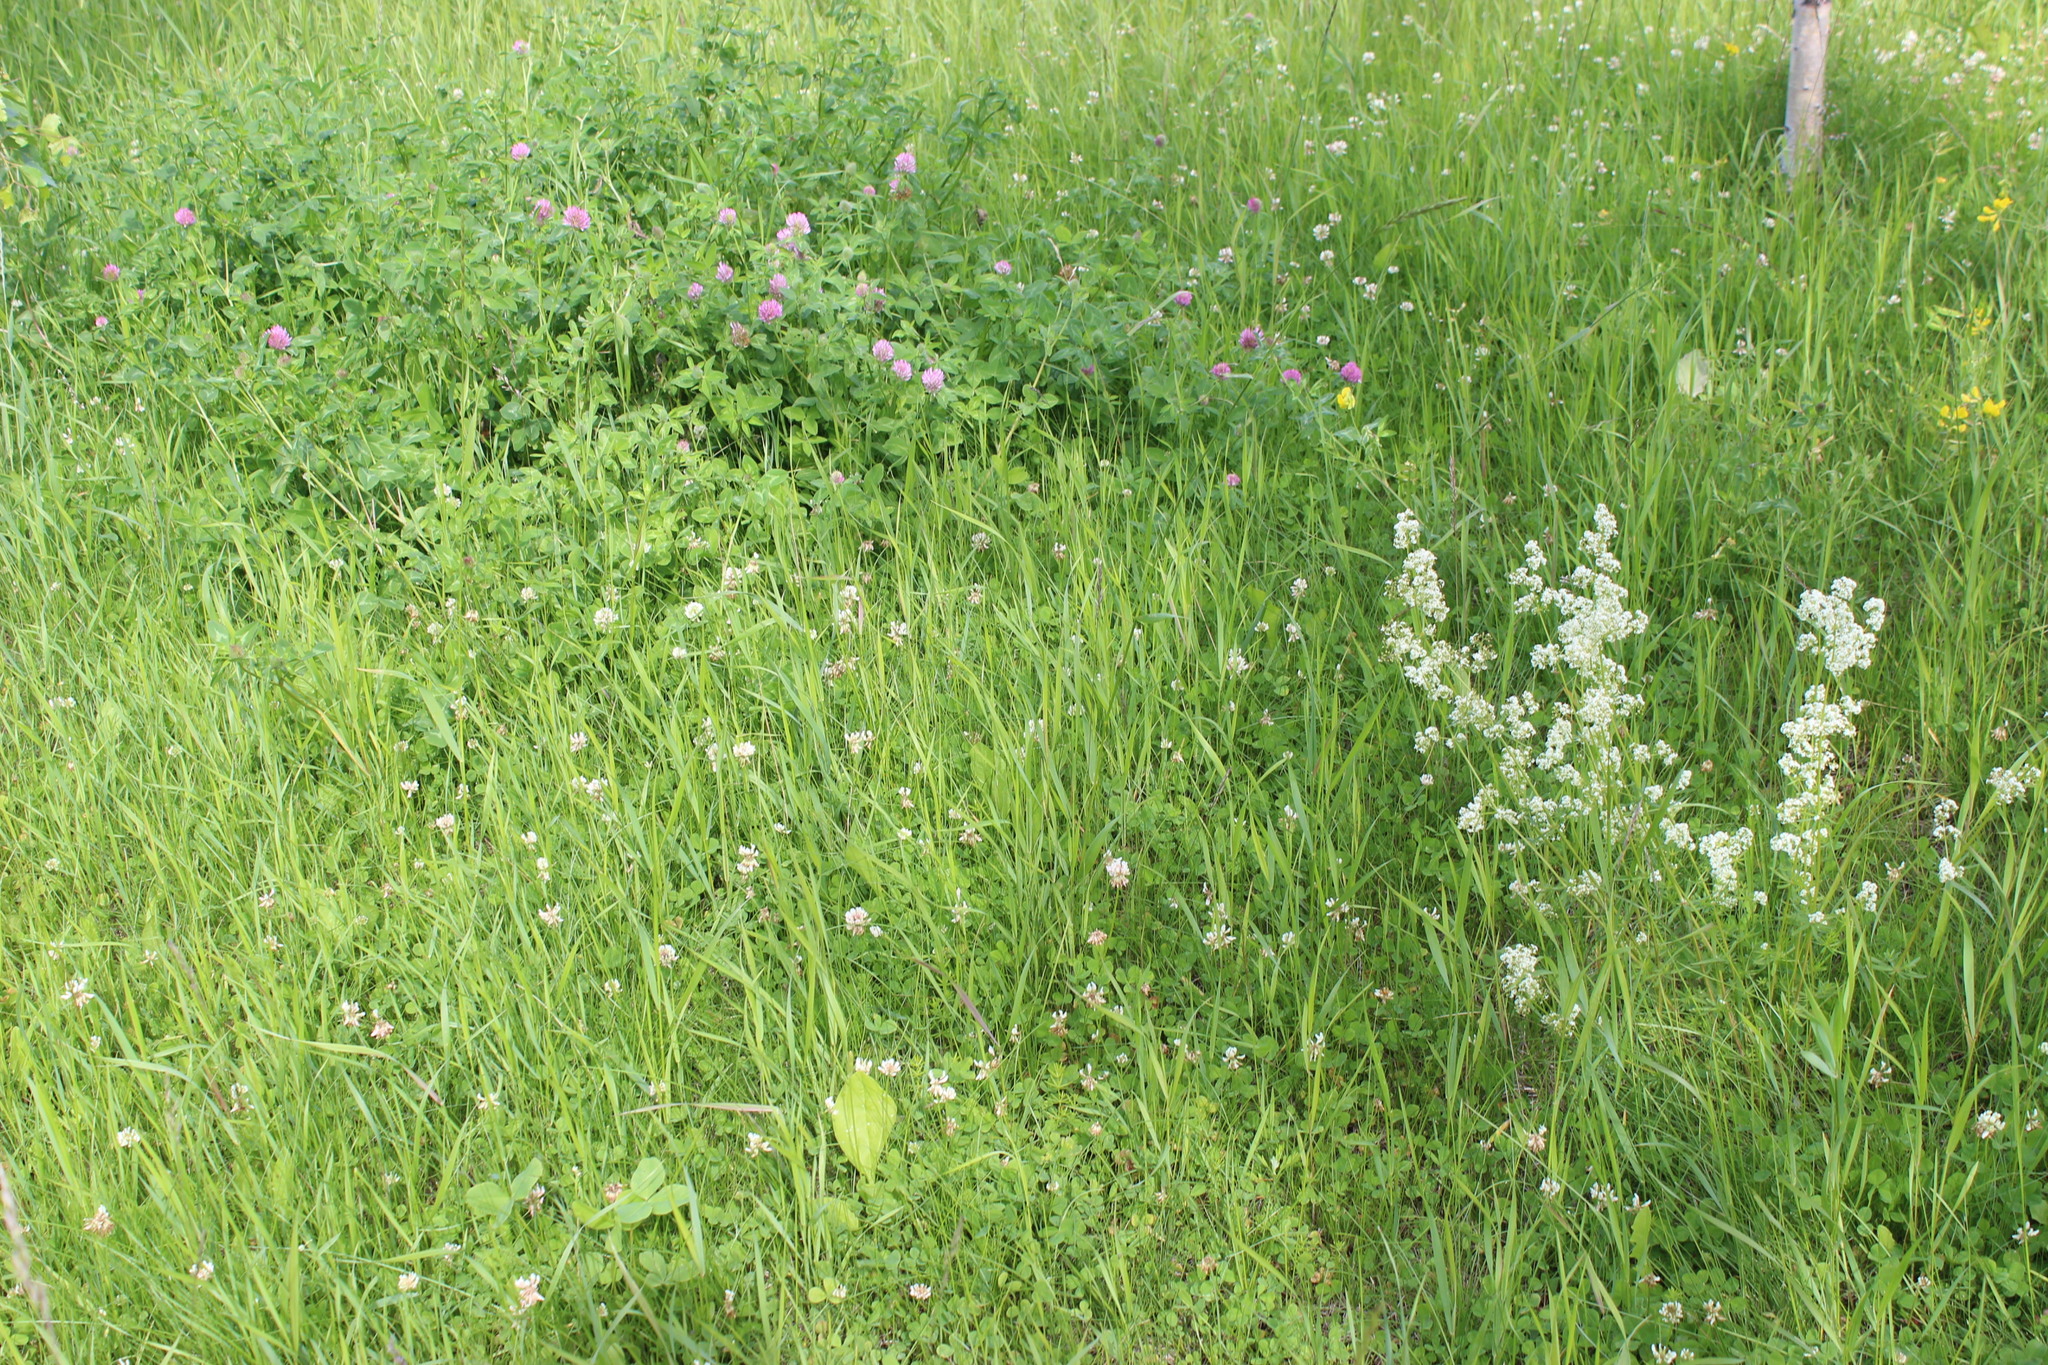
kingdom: Plantae
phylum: Tracheophyta
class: Magnoliopsida
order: Fabales
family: Fabaceae
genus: Trifolium
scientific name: Trifolium repens
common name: White clover
